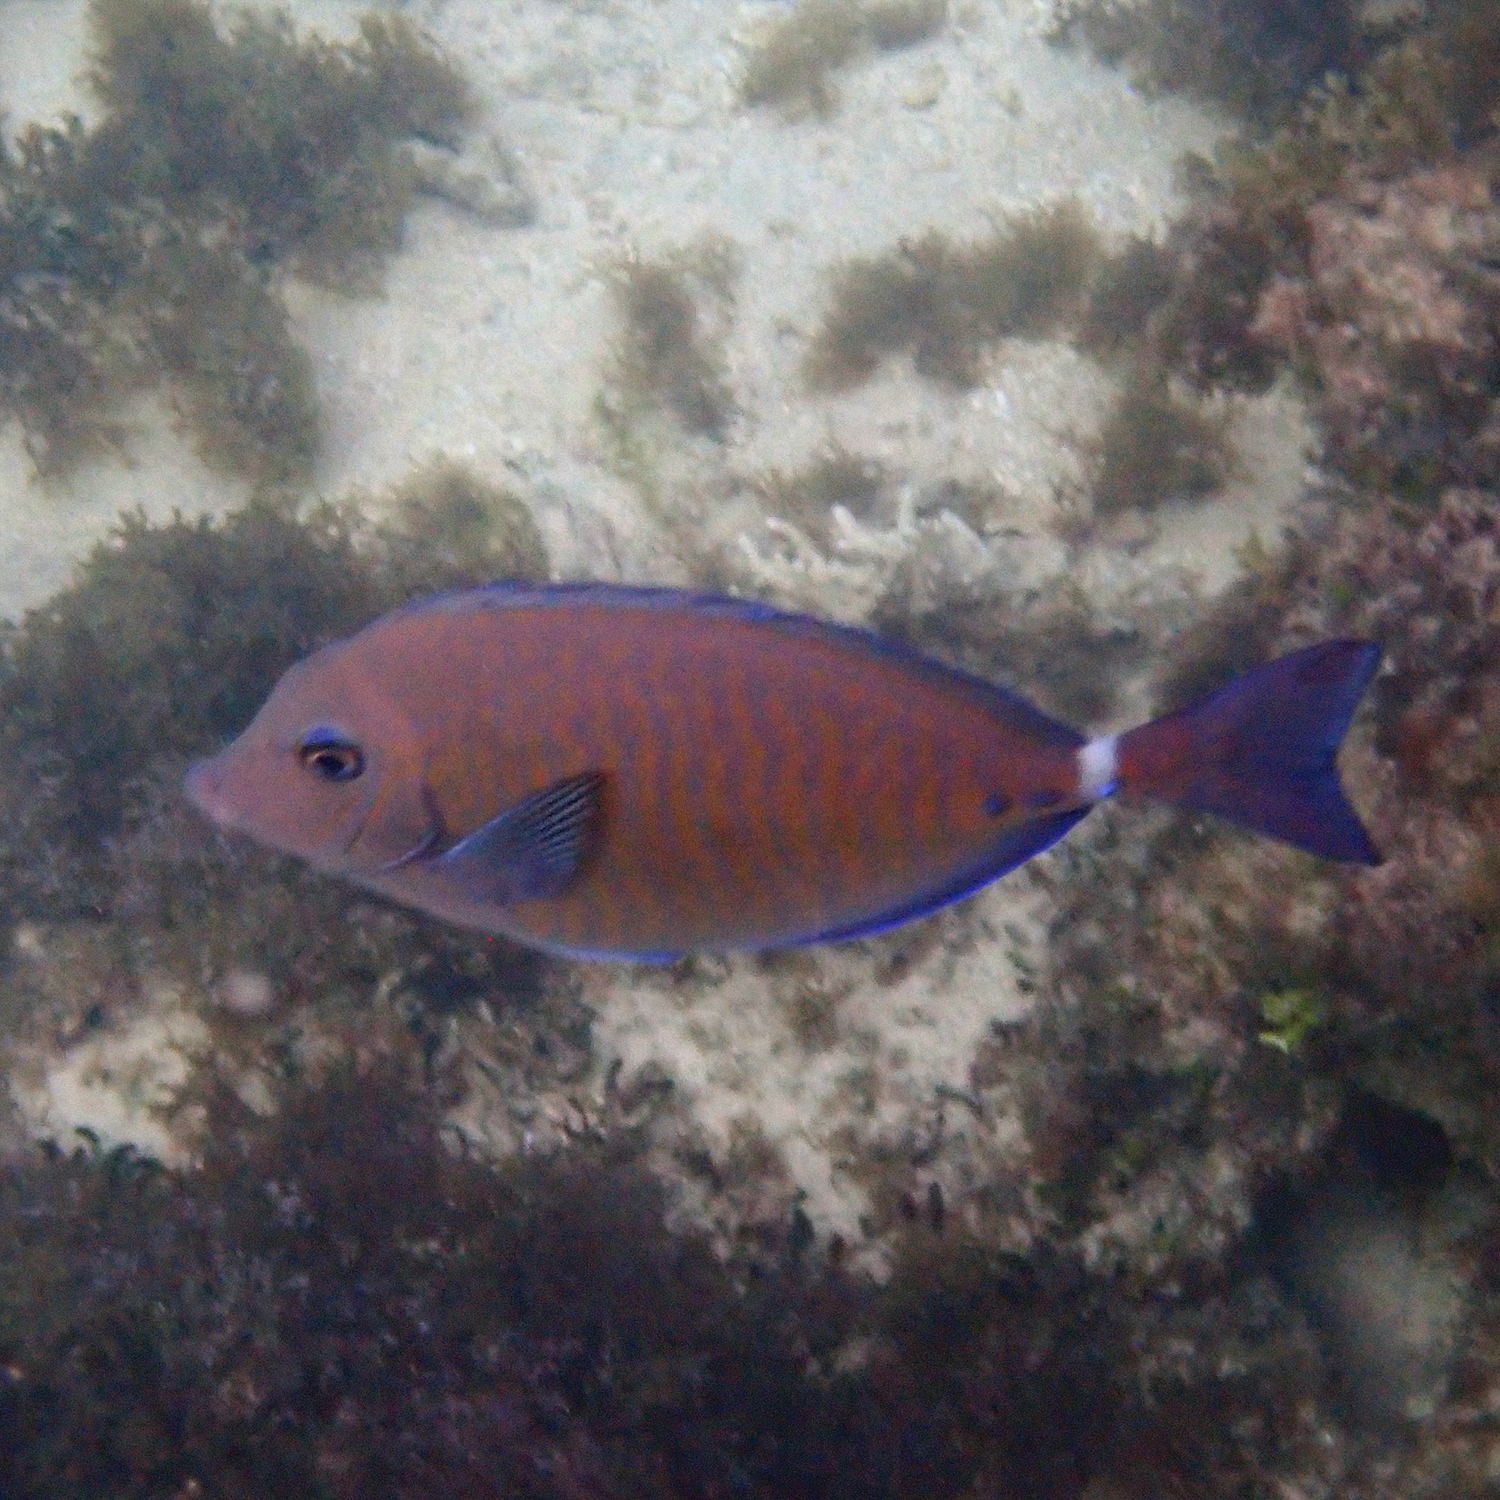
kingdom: Animalia
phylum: Chordata
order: Perciformes
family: Acanthuridae
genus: Prionurus
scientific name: Prionurus maculatus
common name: Yellowspotted sawtail
